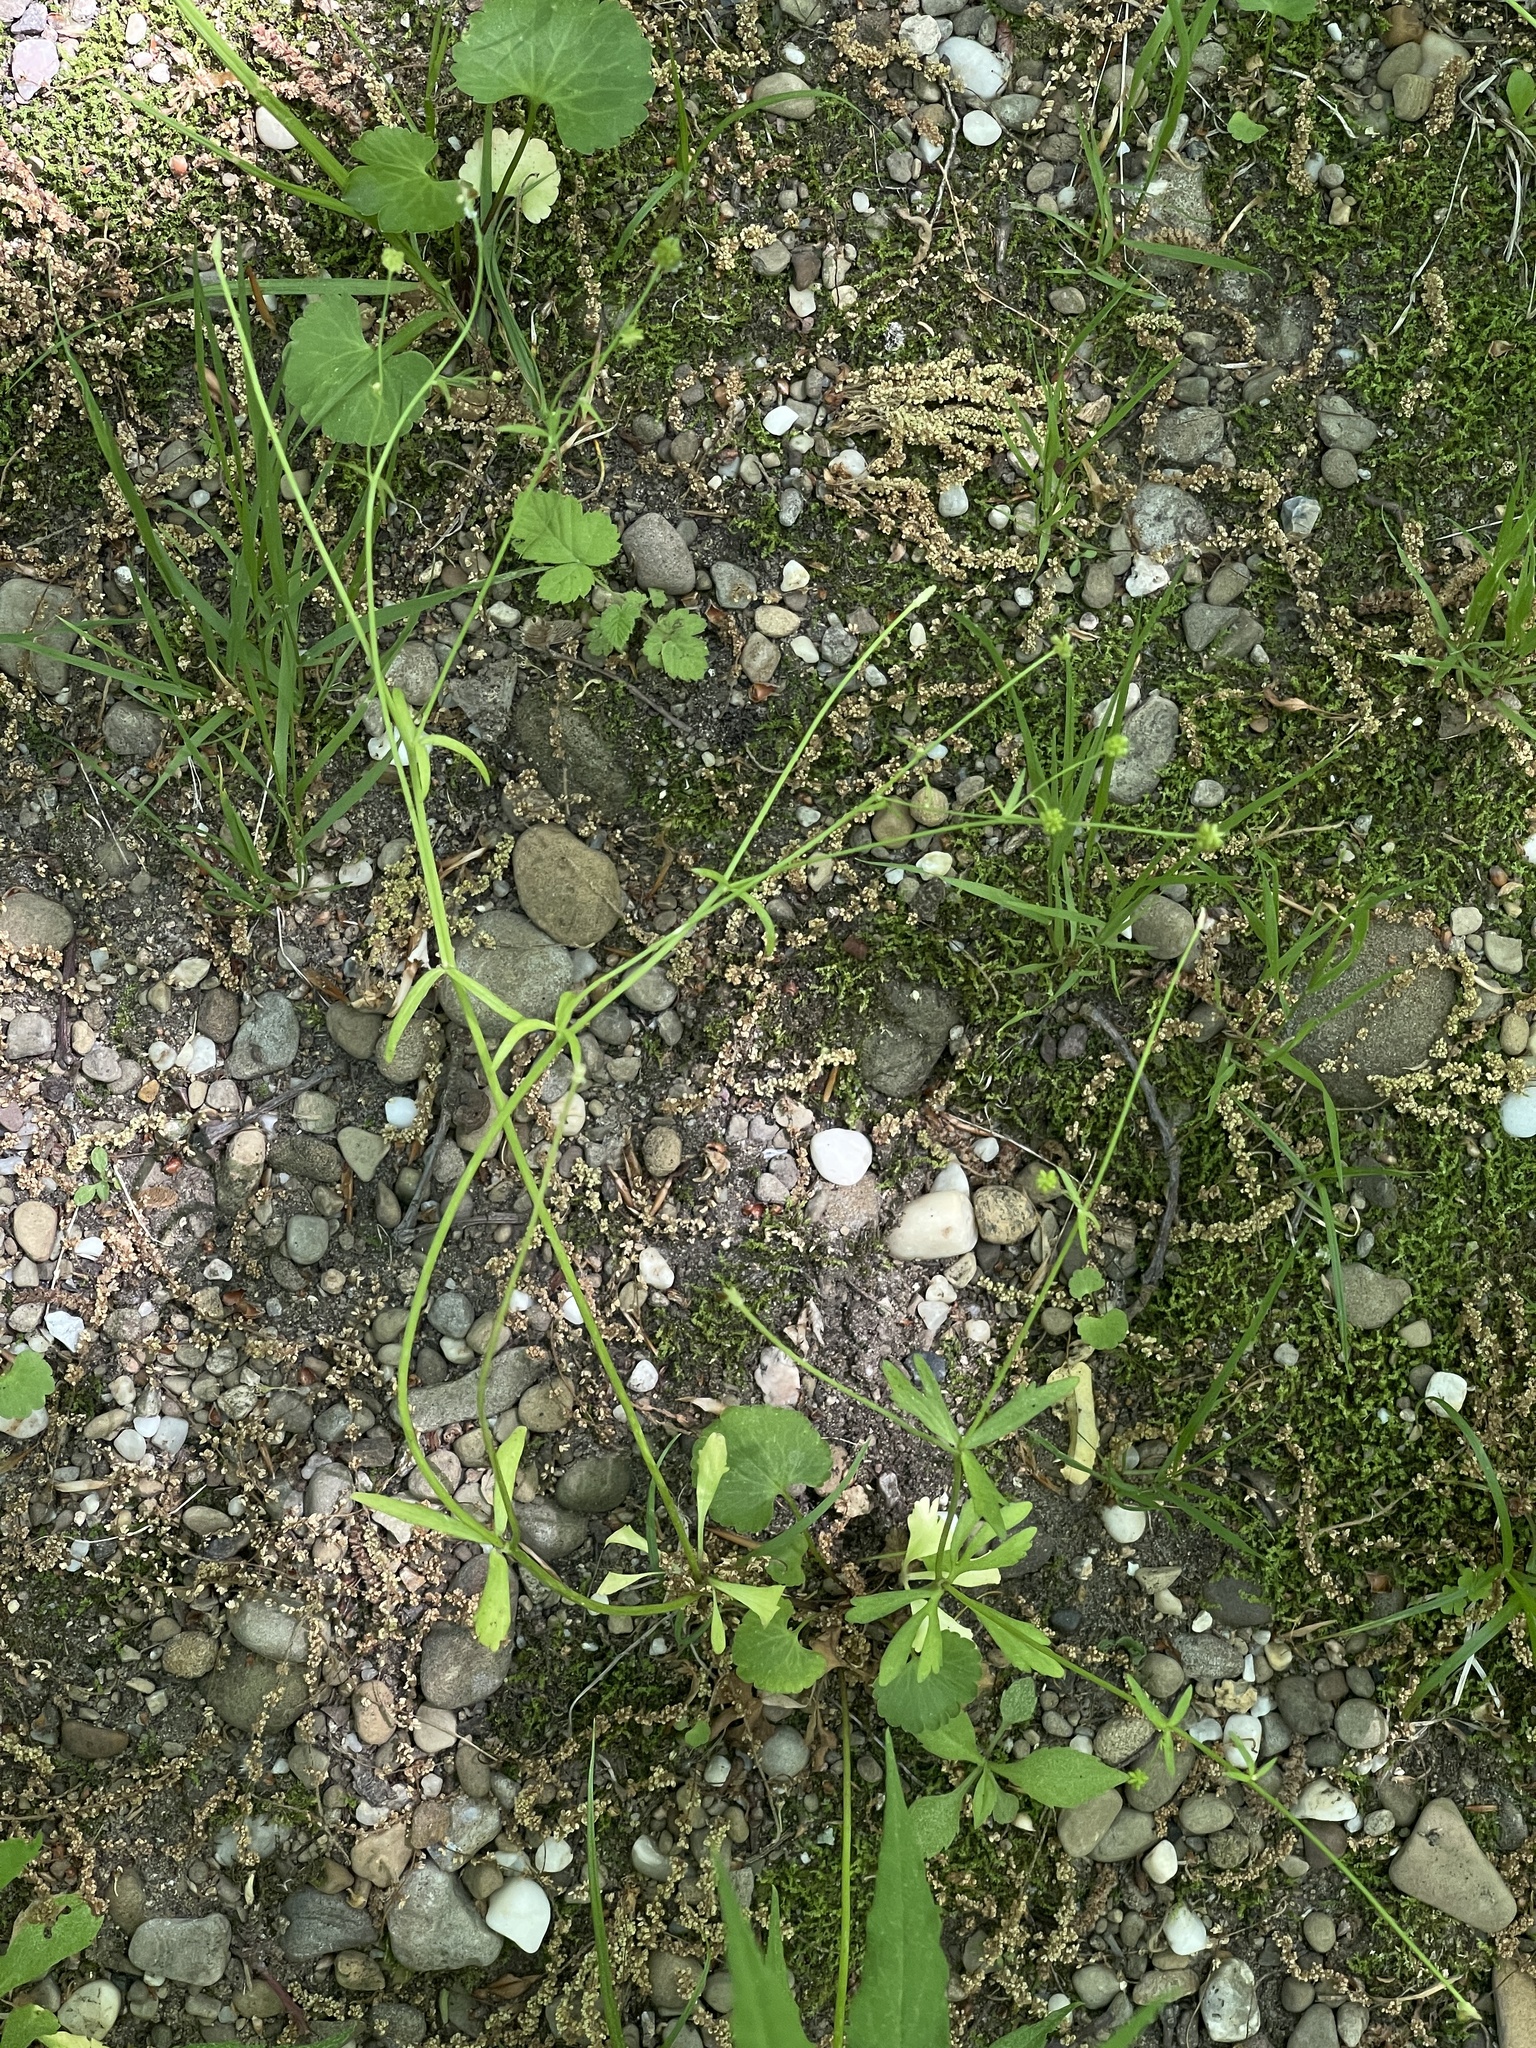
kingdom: Plantae
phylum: Tracheophyta
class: Magnoliopsida
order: Ranunculales
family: Ranunculaceae
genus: Ranunculus
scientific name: Ranunculus abortivus
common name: Early wood buttercup
